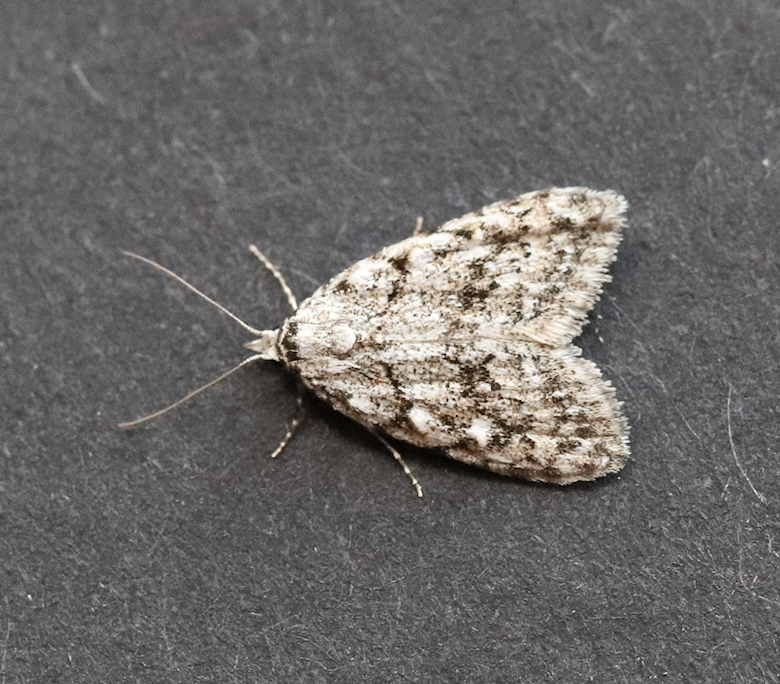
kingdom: Animalia
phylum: Arthropoda
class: Insecta
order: Lepidoptera
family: Nolidae
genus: Nola
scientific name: Nola cicatricalis
